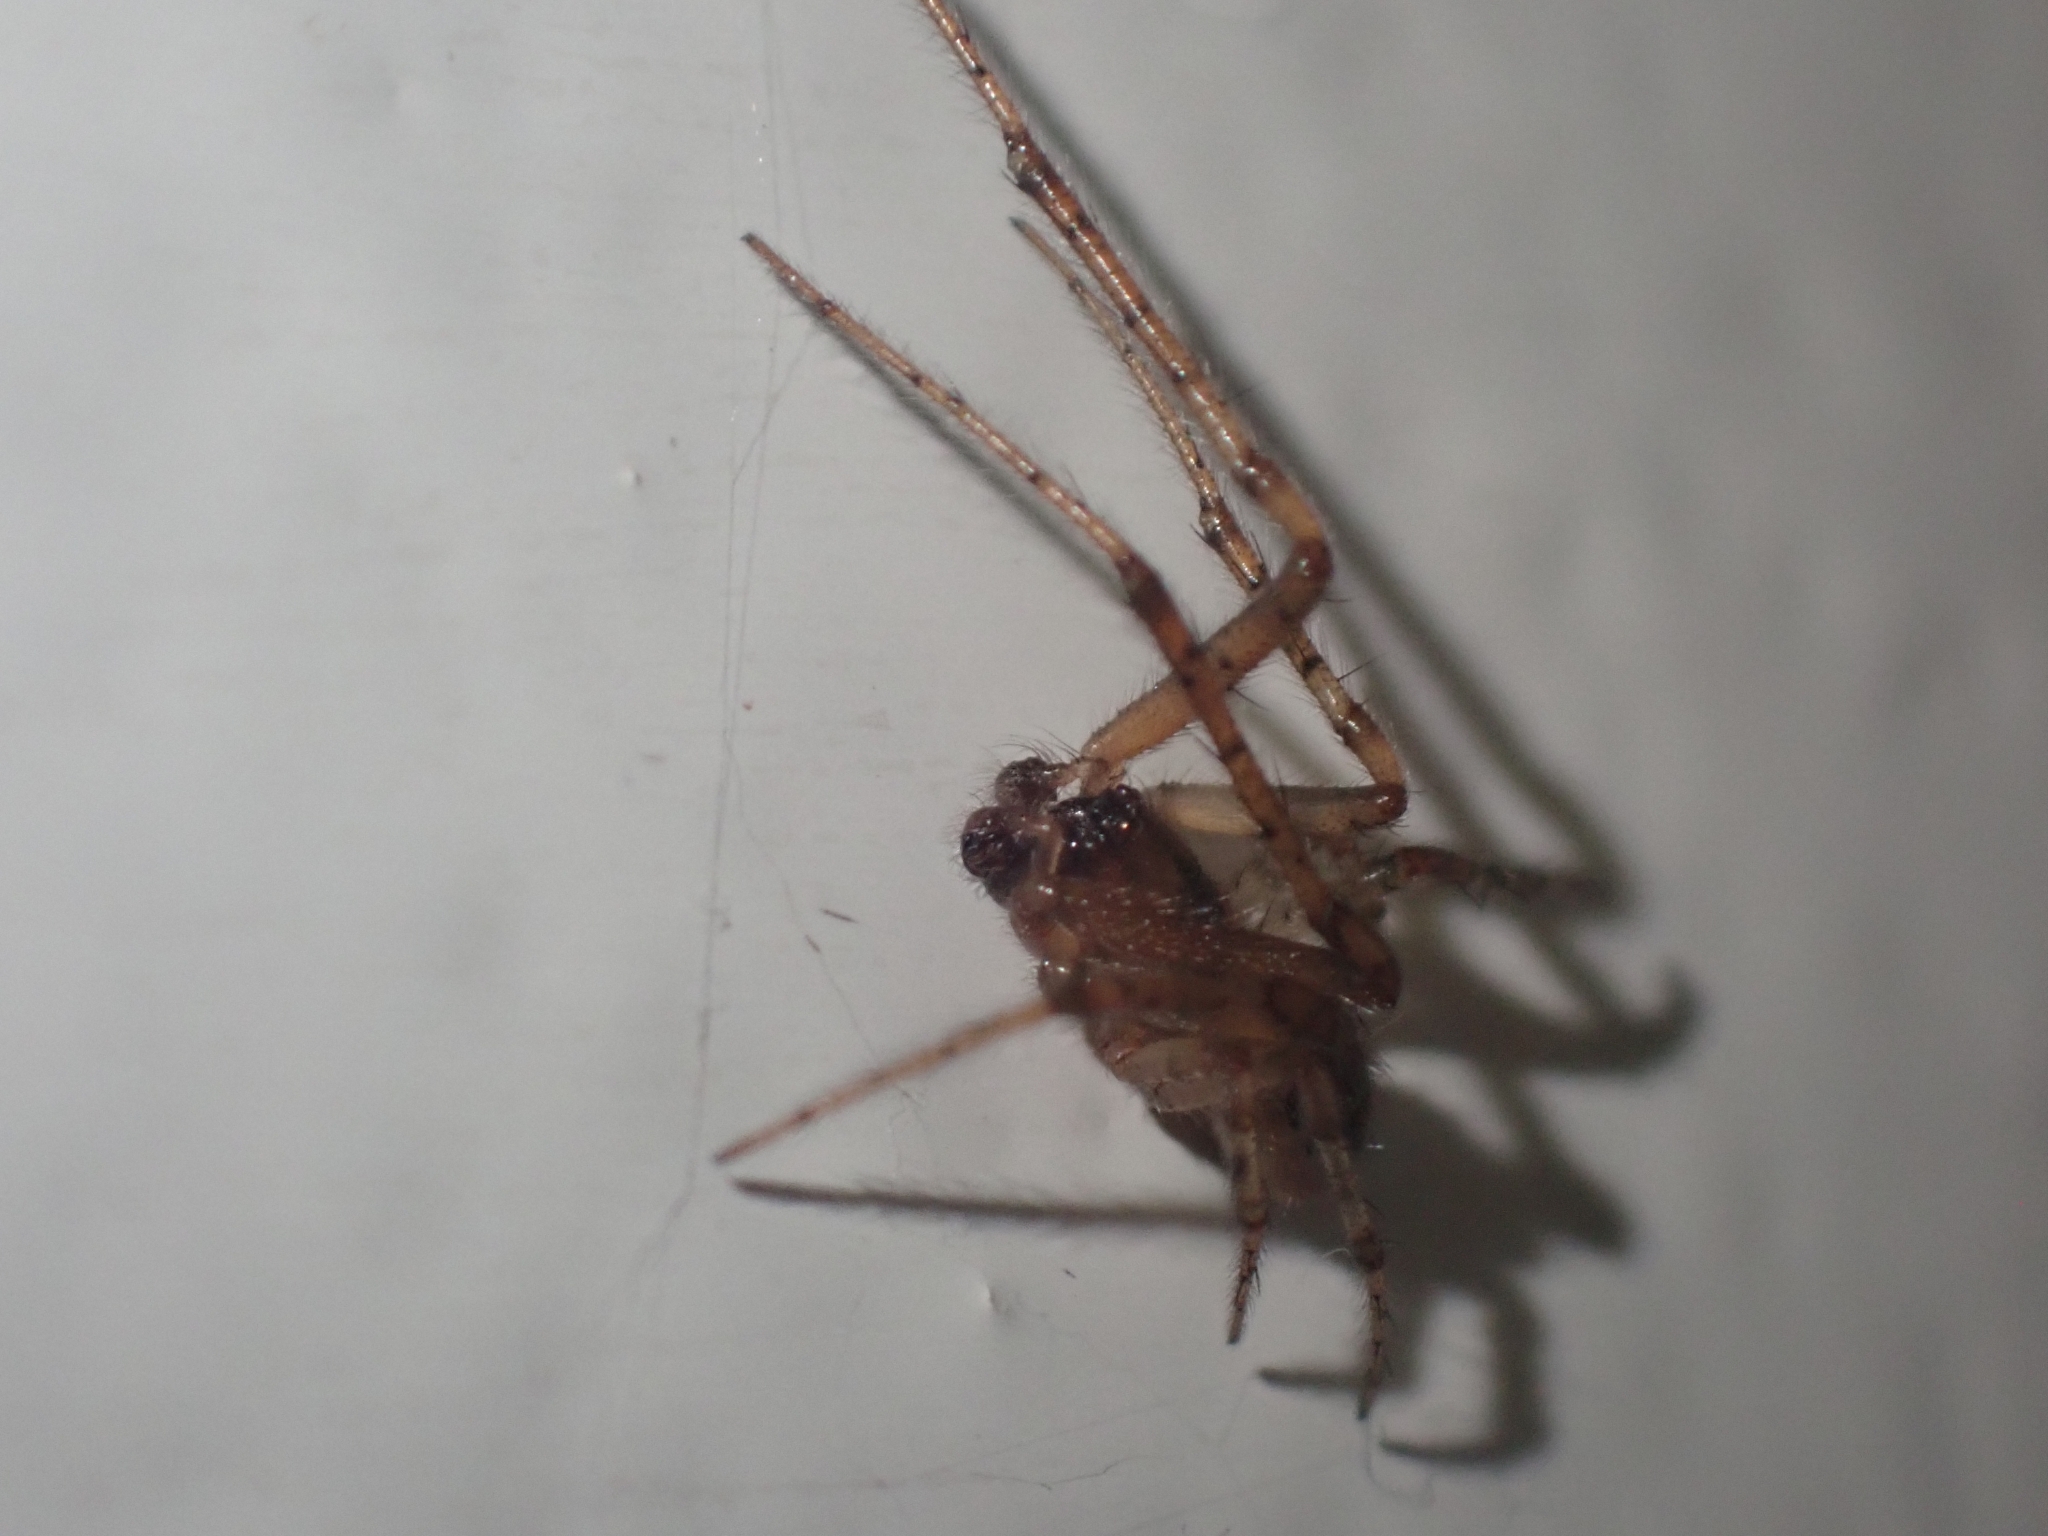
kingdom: Animalia
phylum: Arthropoda
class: Arachnida
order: Araneae
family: Araneidae
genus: Zygiella
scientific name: Zygiella x-notata
